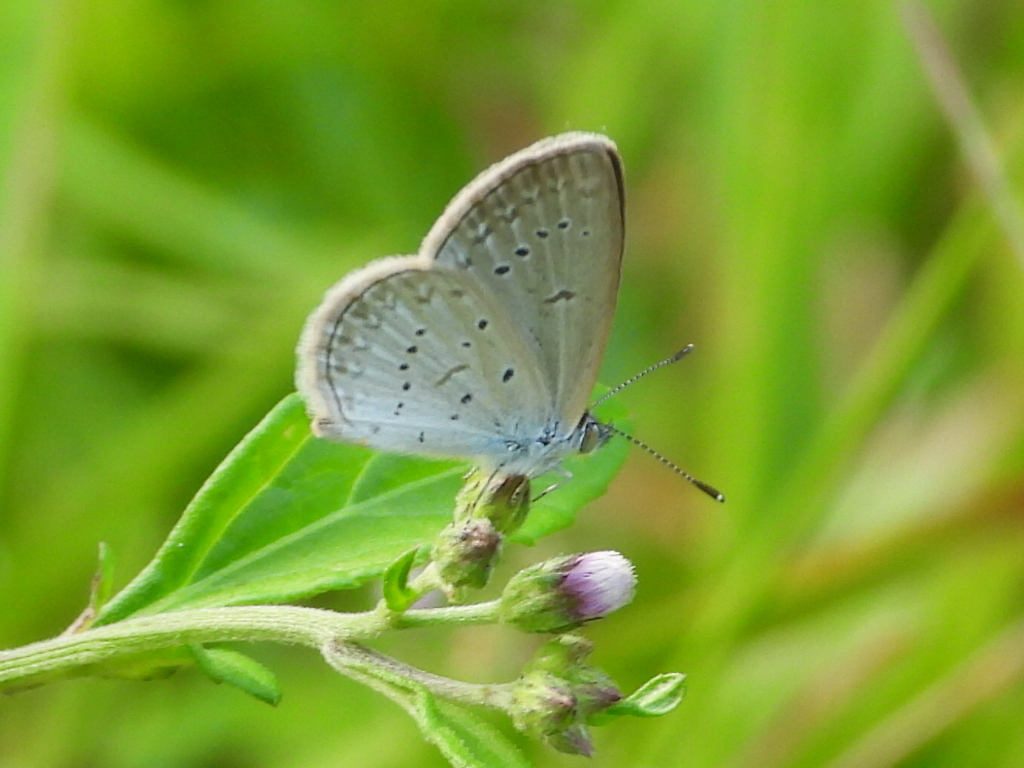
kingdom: Animalia
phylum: Arthropoda
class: Insecta
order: Lepidoptera
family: Lycaenidae
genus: Zizina
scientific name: Zizina otis
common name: Lesser grass blue
